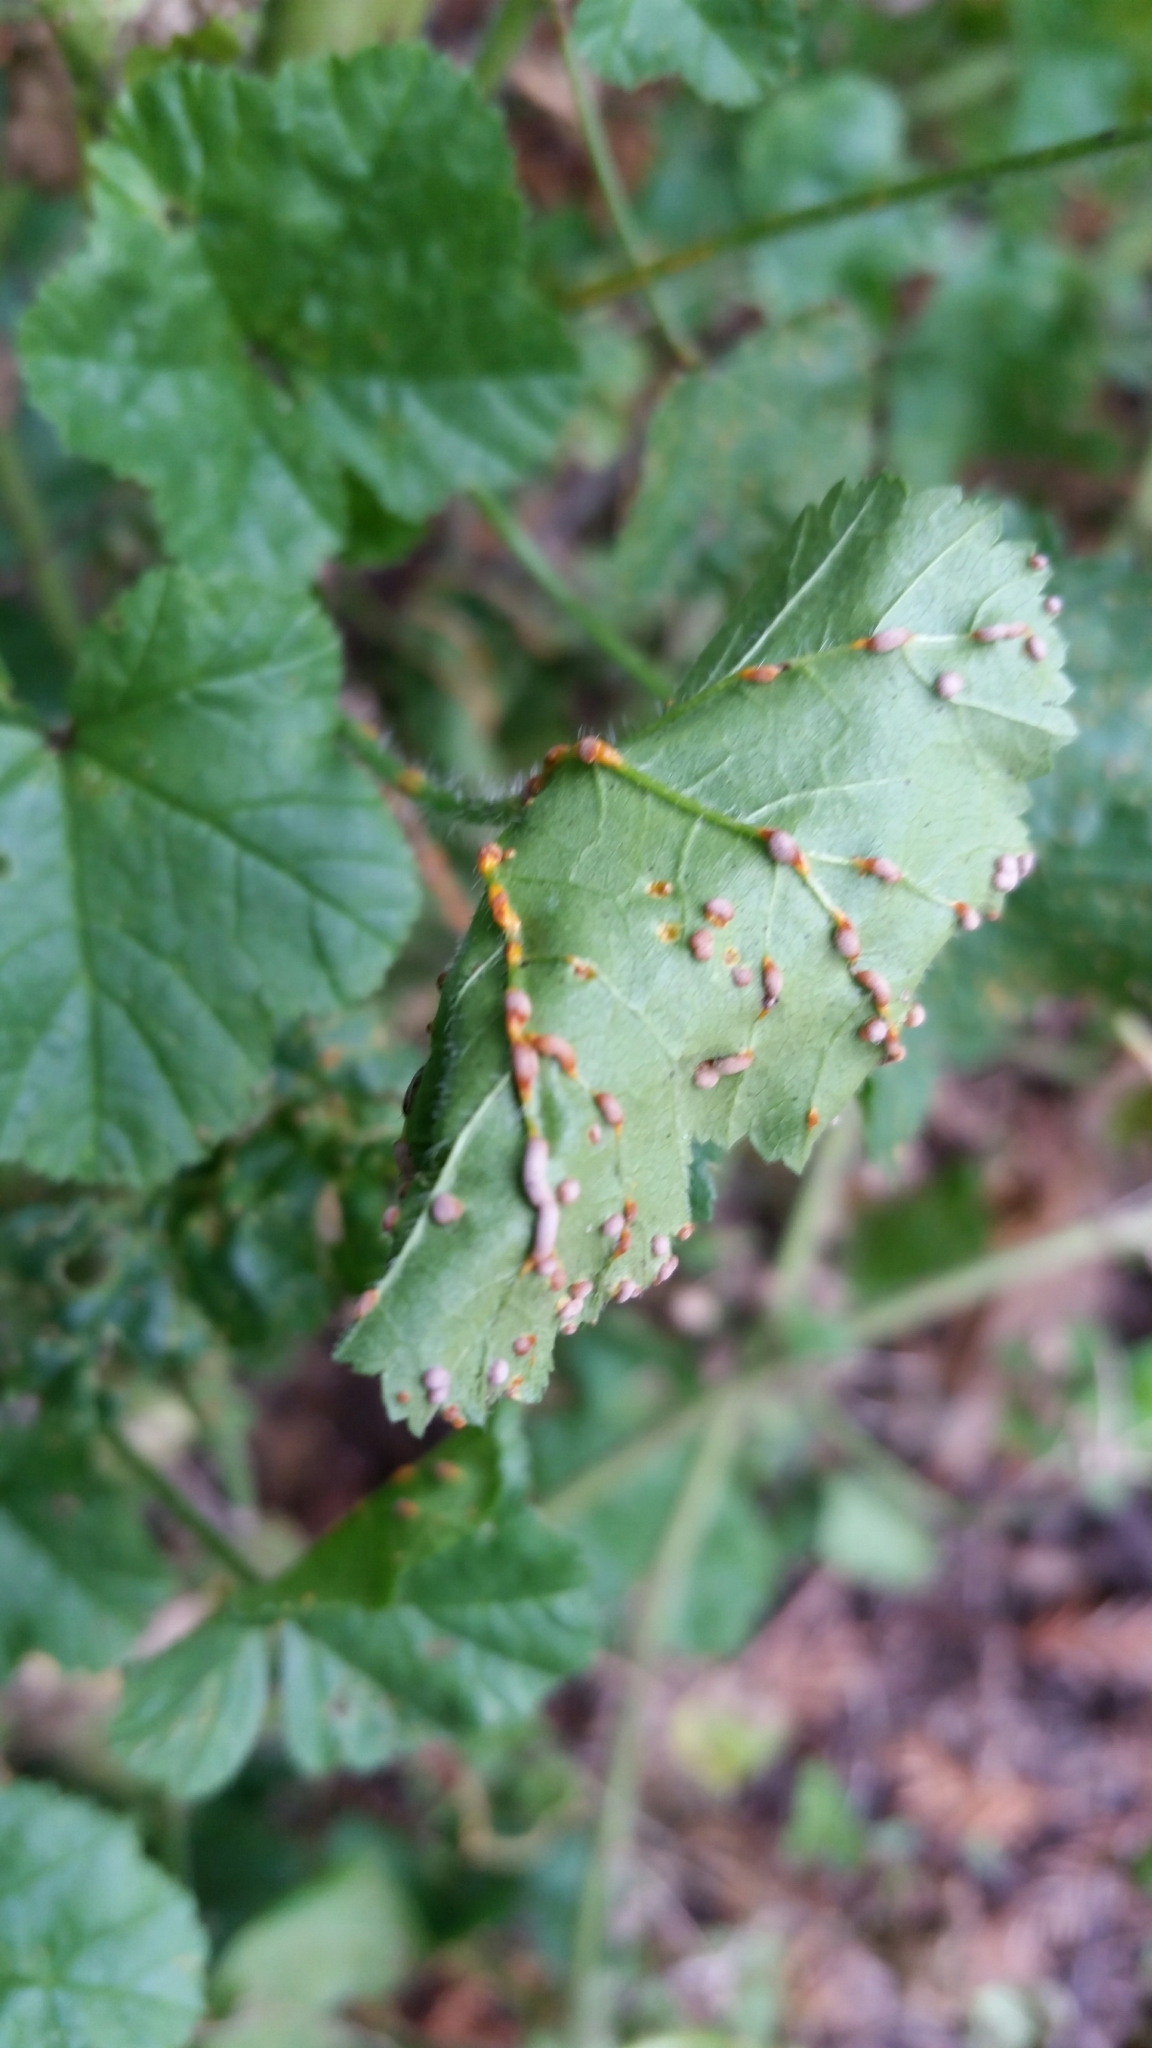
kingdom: Fungi
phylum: Basidiomycota
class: Pucciniomycetes
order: Pucciniales
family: Pucciniaceae
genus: Puccinia
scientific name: Puccinia malvacearum
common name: Hollyhock rust
